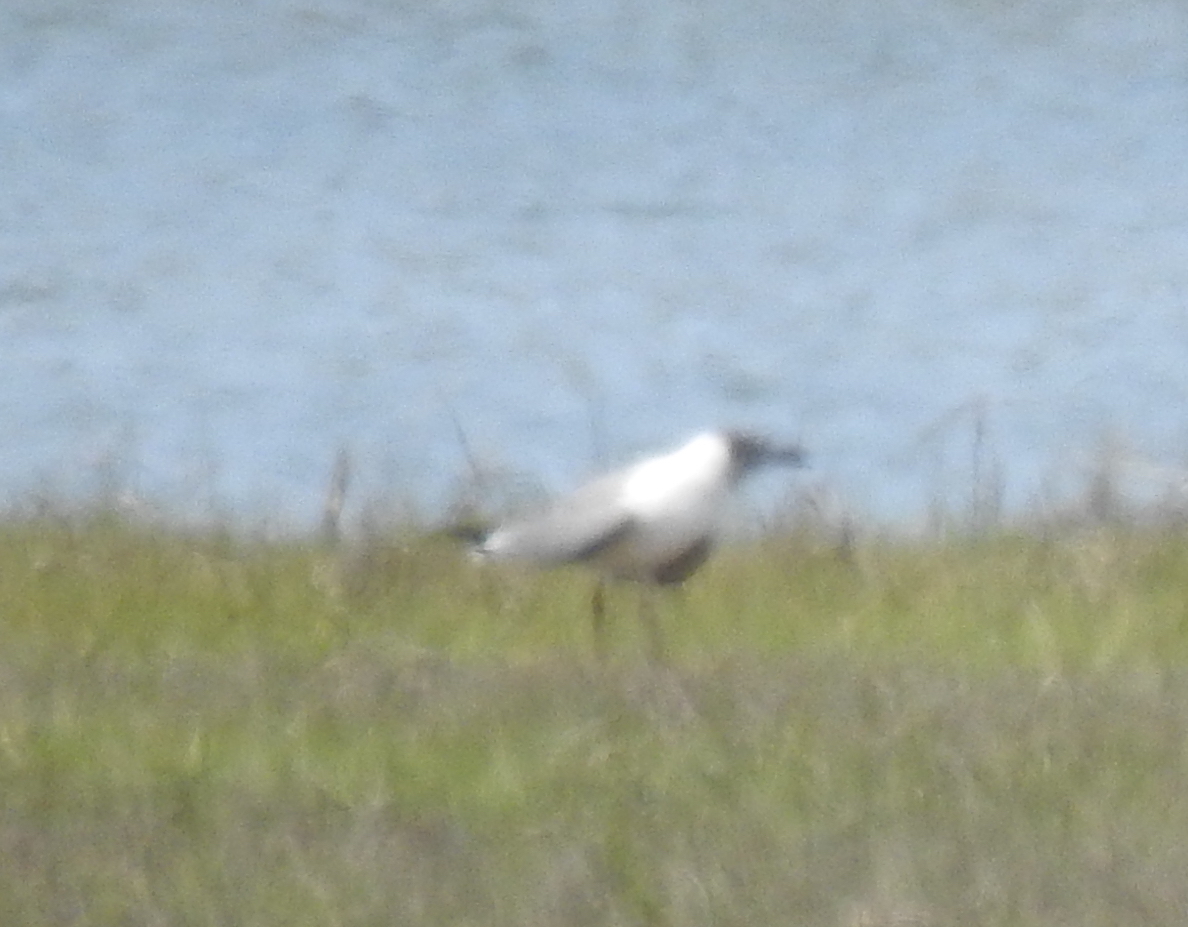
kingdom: Animalia
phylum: Chordata
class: Aves
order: Charadriiformes
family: Laridae
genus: Leucophaeus
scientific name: Leucophaeus atricilla
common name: Laughing gull
